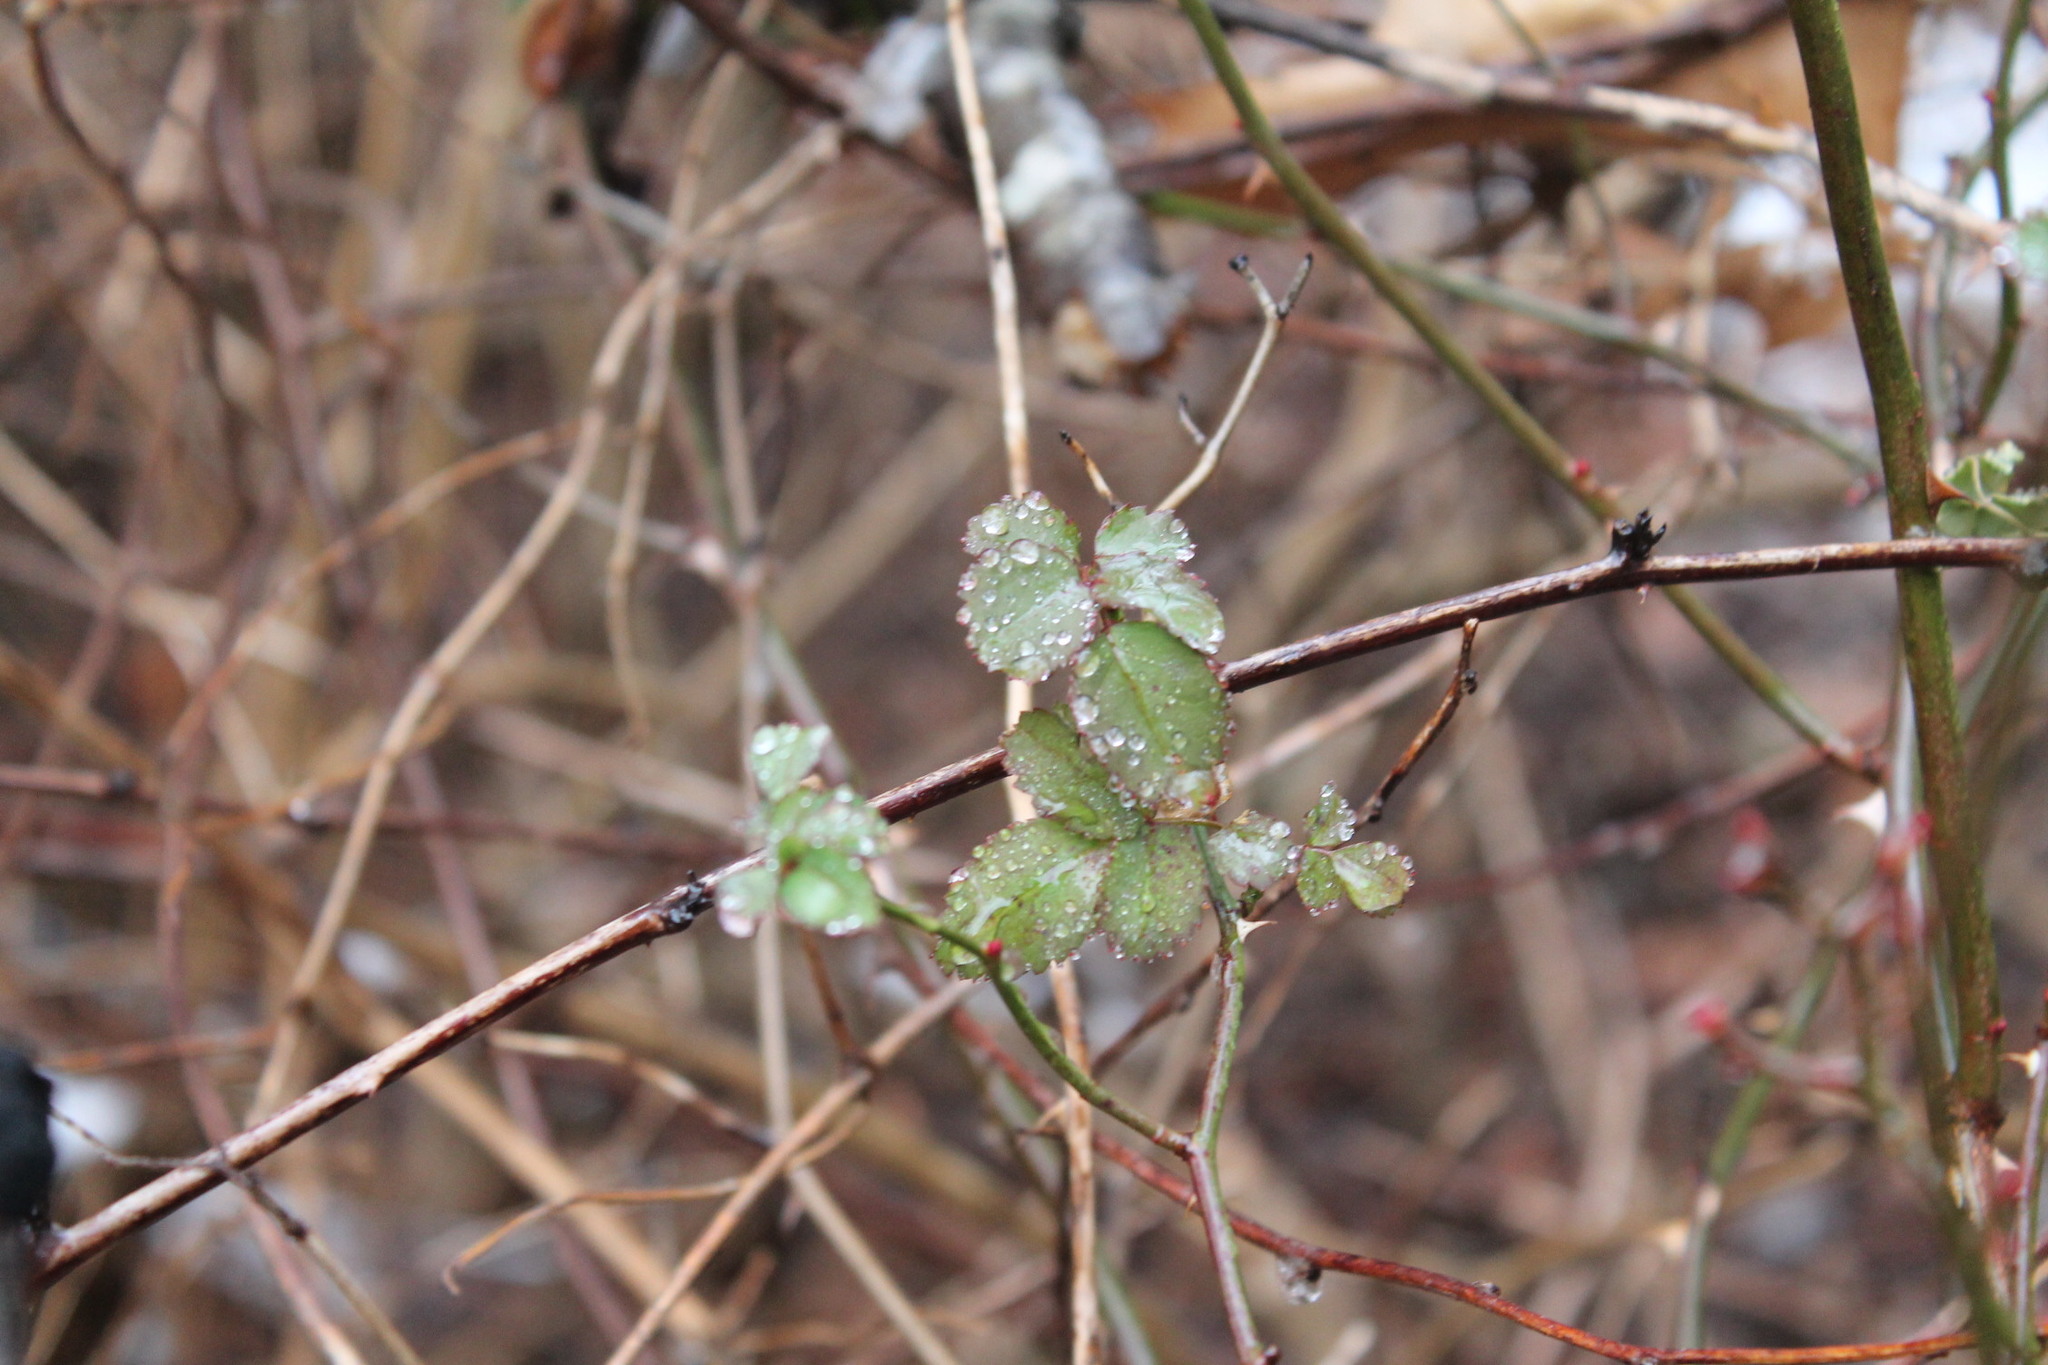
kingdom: Plantae
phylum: Tracheophyta
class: Magnoliopsida
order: Rosales
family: Rosaceae
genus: Rosa
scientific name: Rosa multiflora
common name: Multiflora rose
